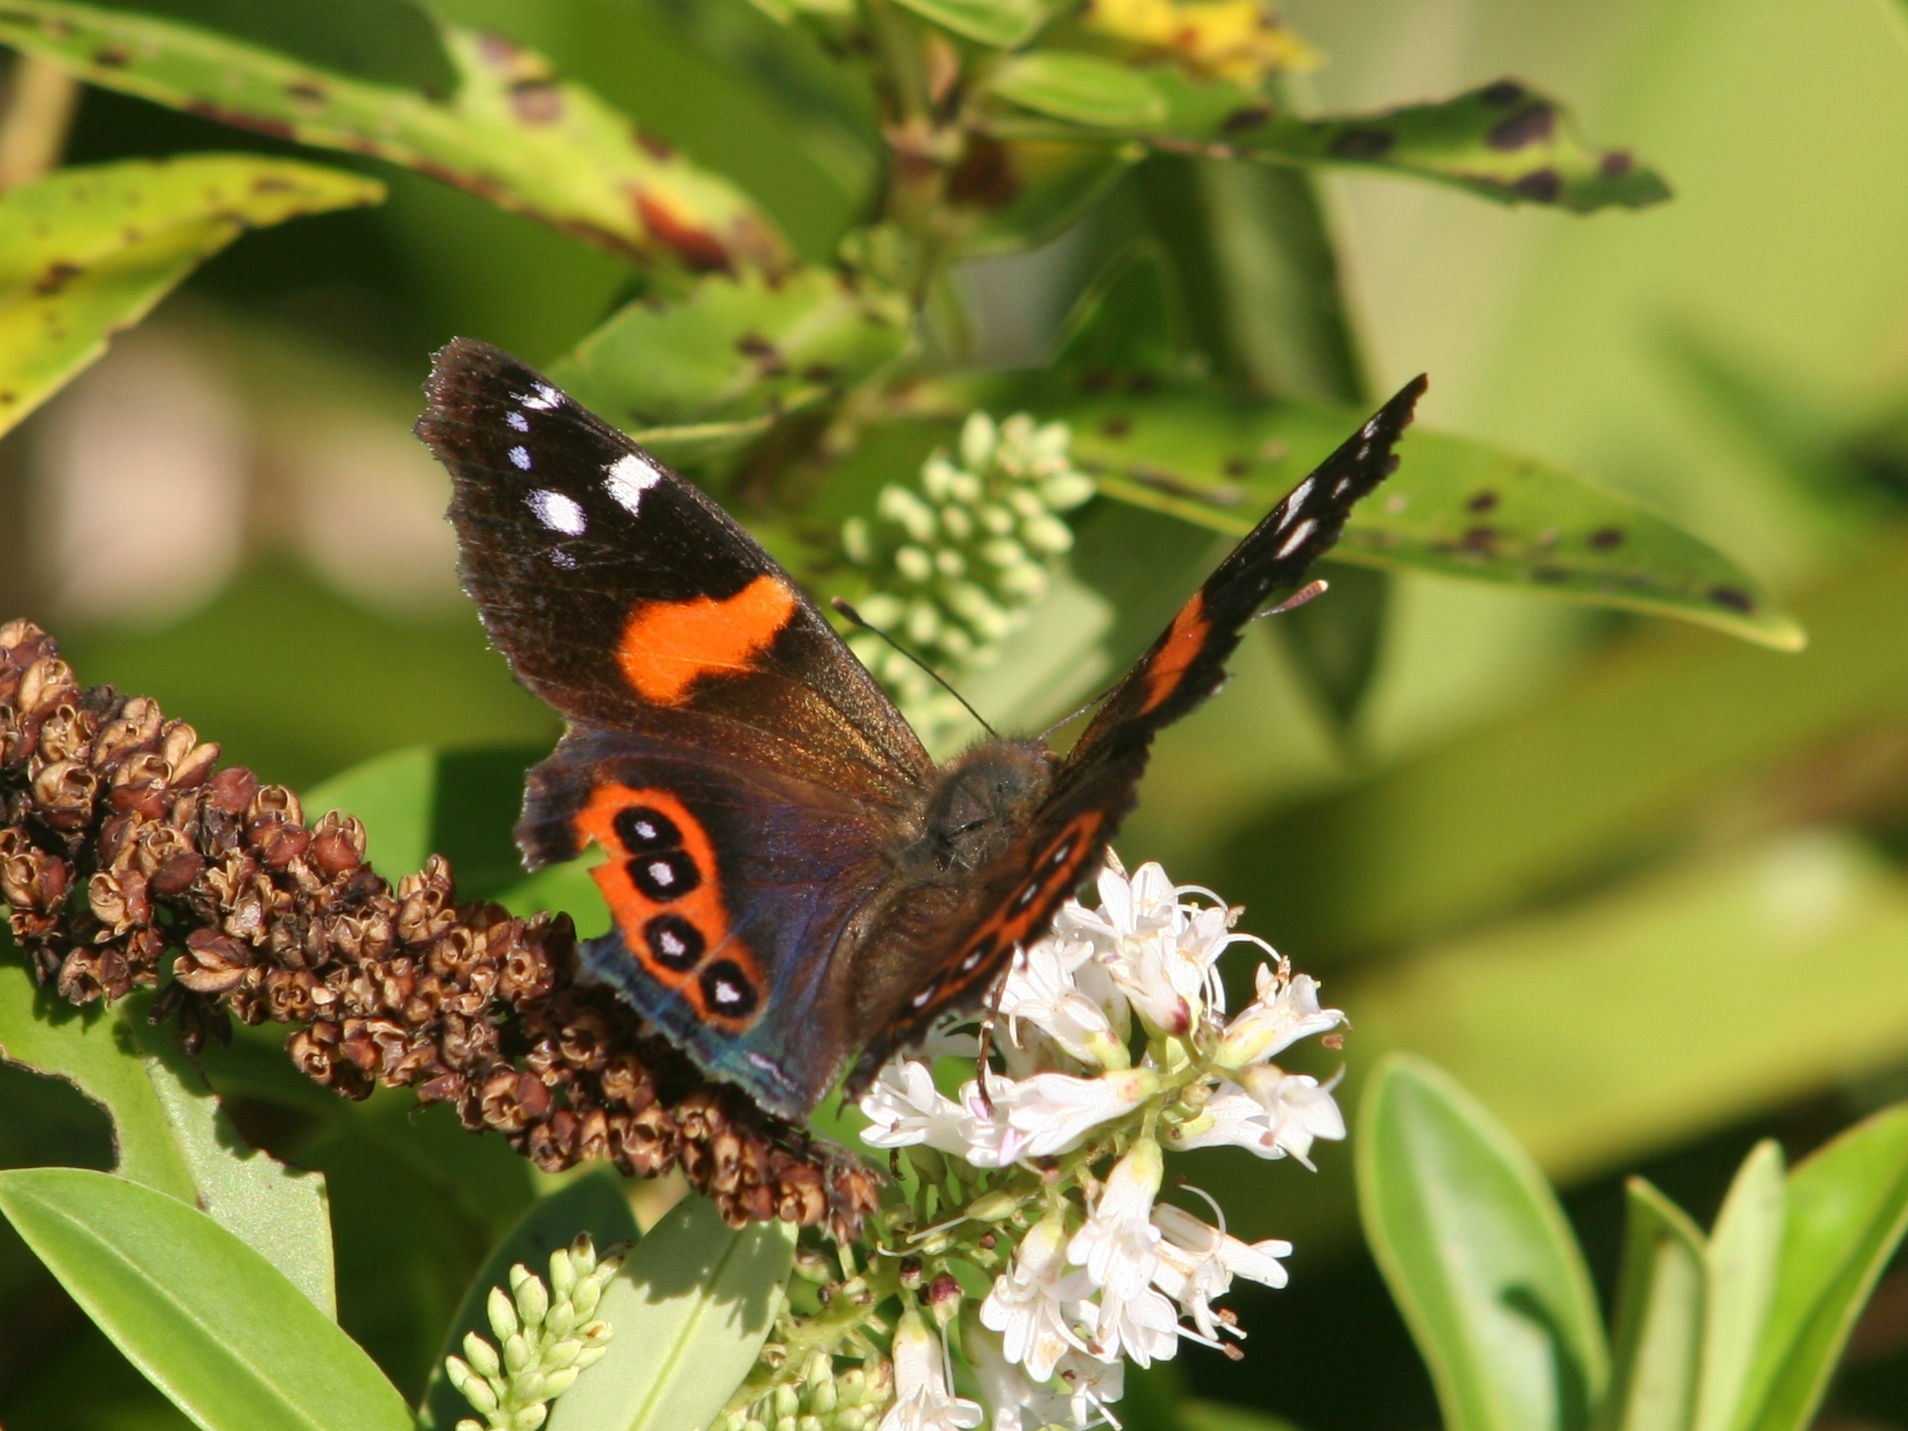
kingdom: Animalia
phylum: Arthropoda
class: Insecta
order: Lepidoptera
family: Nymphalidae
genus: Vanessa
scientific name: Vanessa gonerilla
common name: New zealand red admiral
